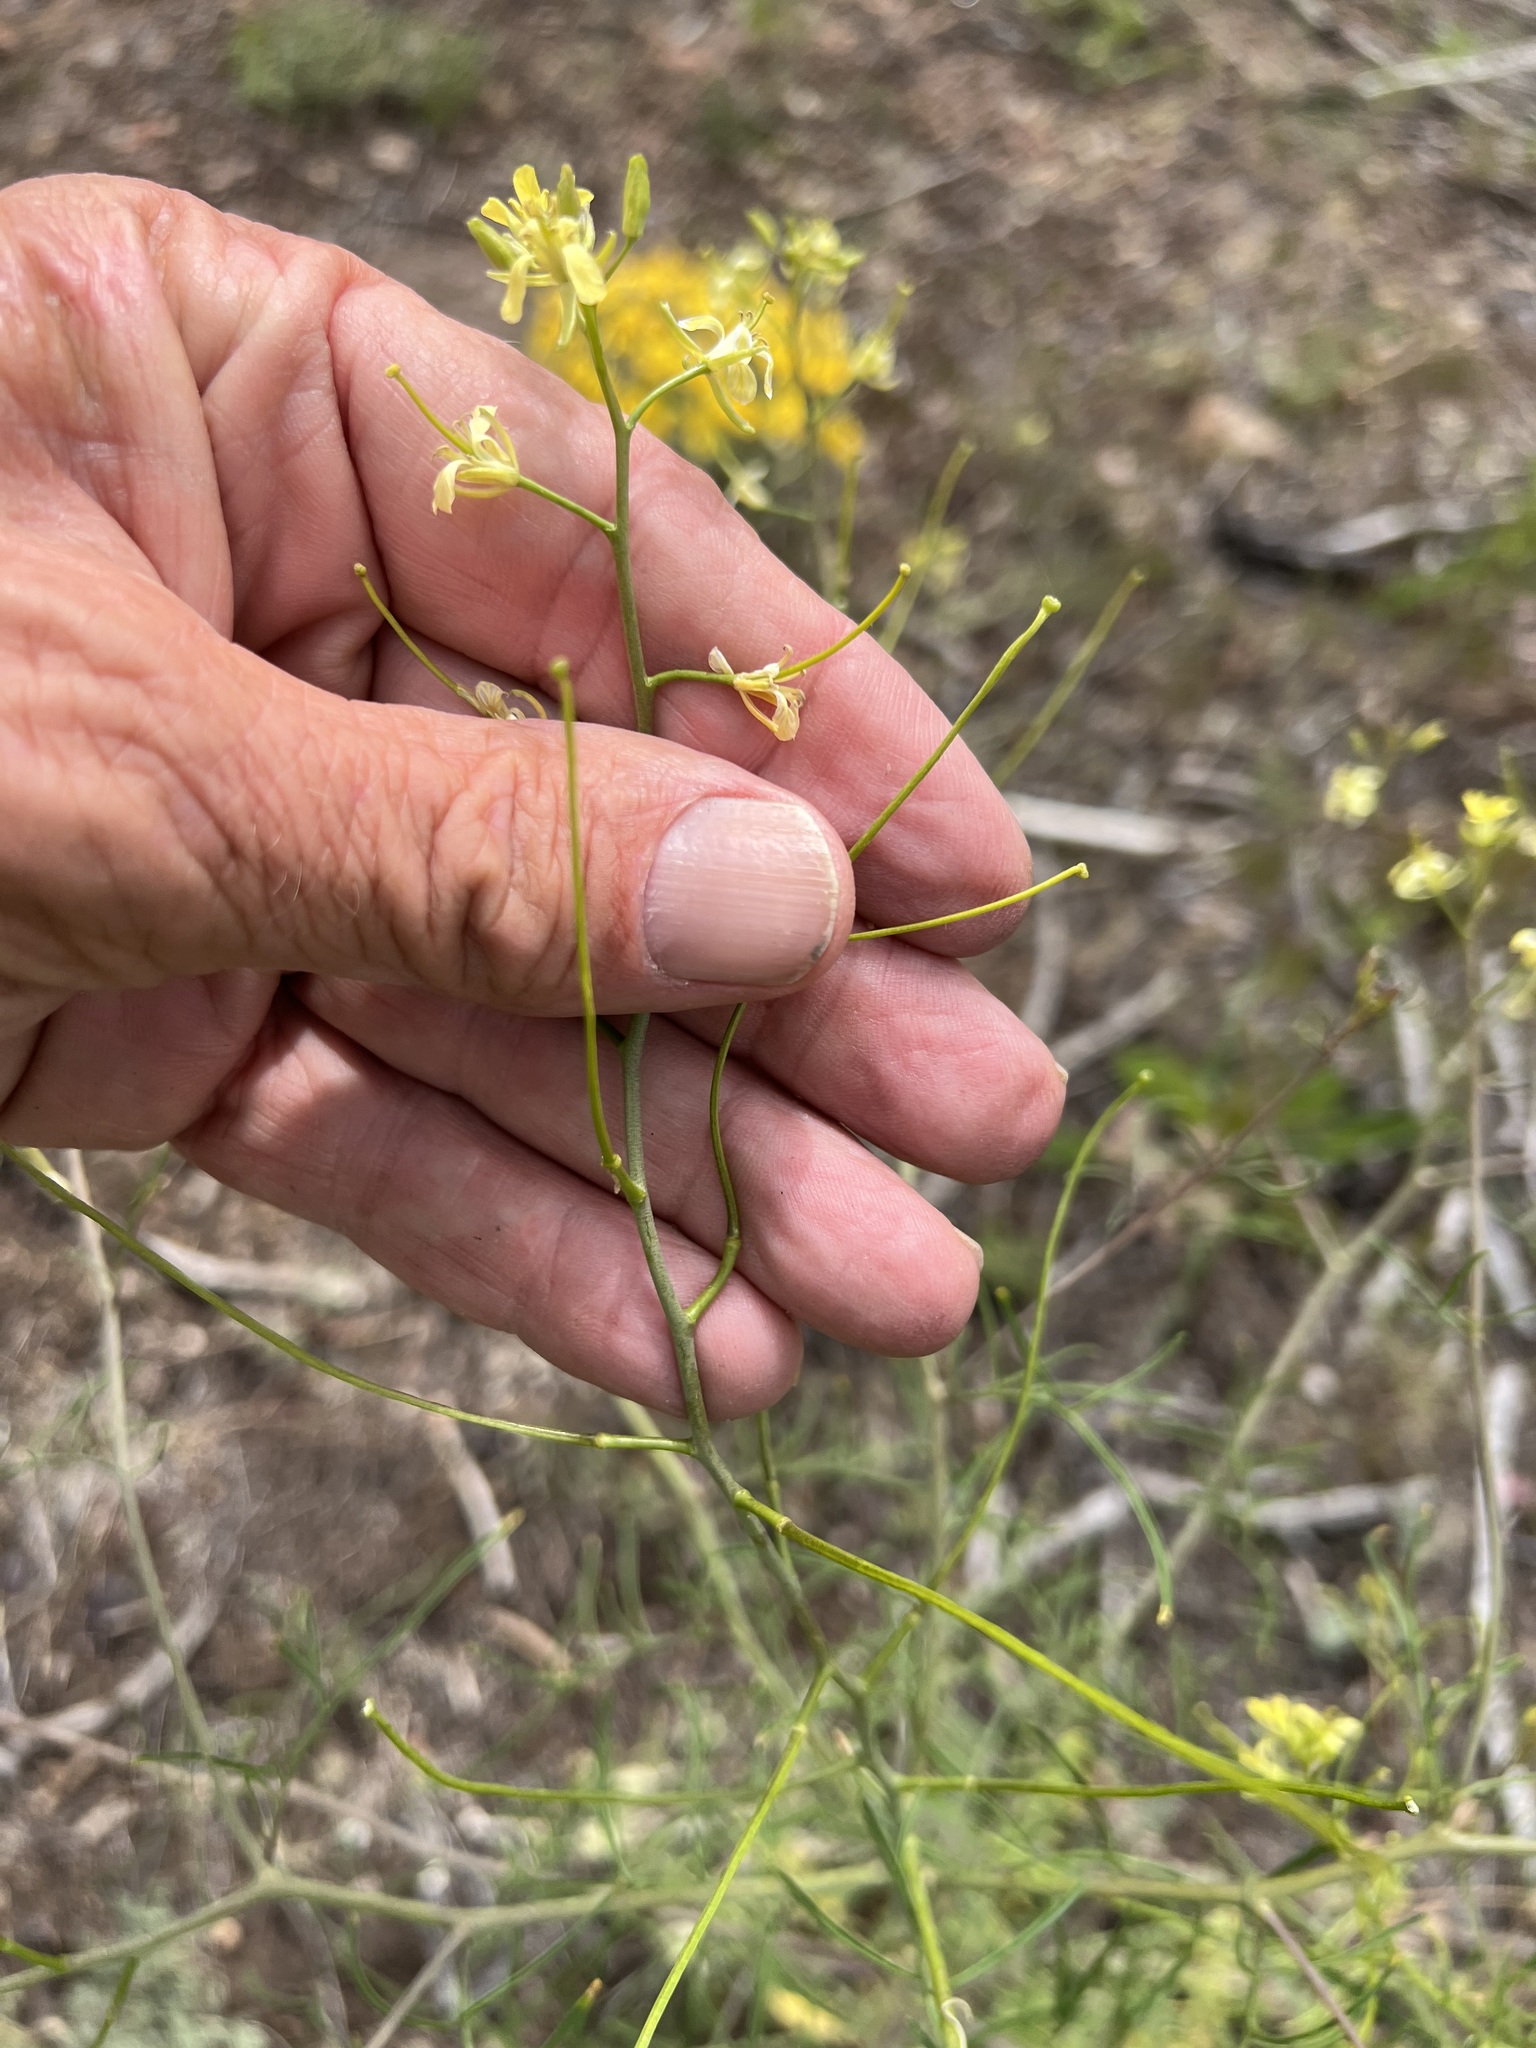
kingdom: Plantae
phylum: Tracheophyta
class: Magnoliopsida
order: Brassicales
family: Brassicaceae
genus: Sisymbrium
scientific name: Sisymbrium altissimum
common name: Tall rocket
